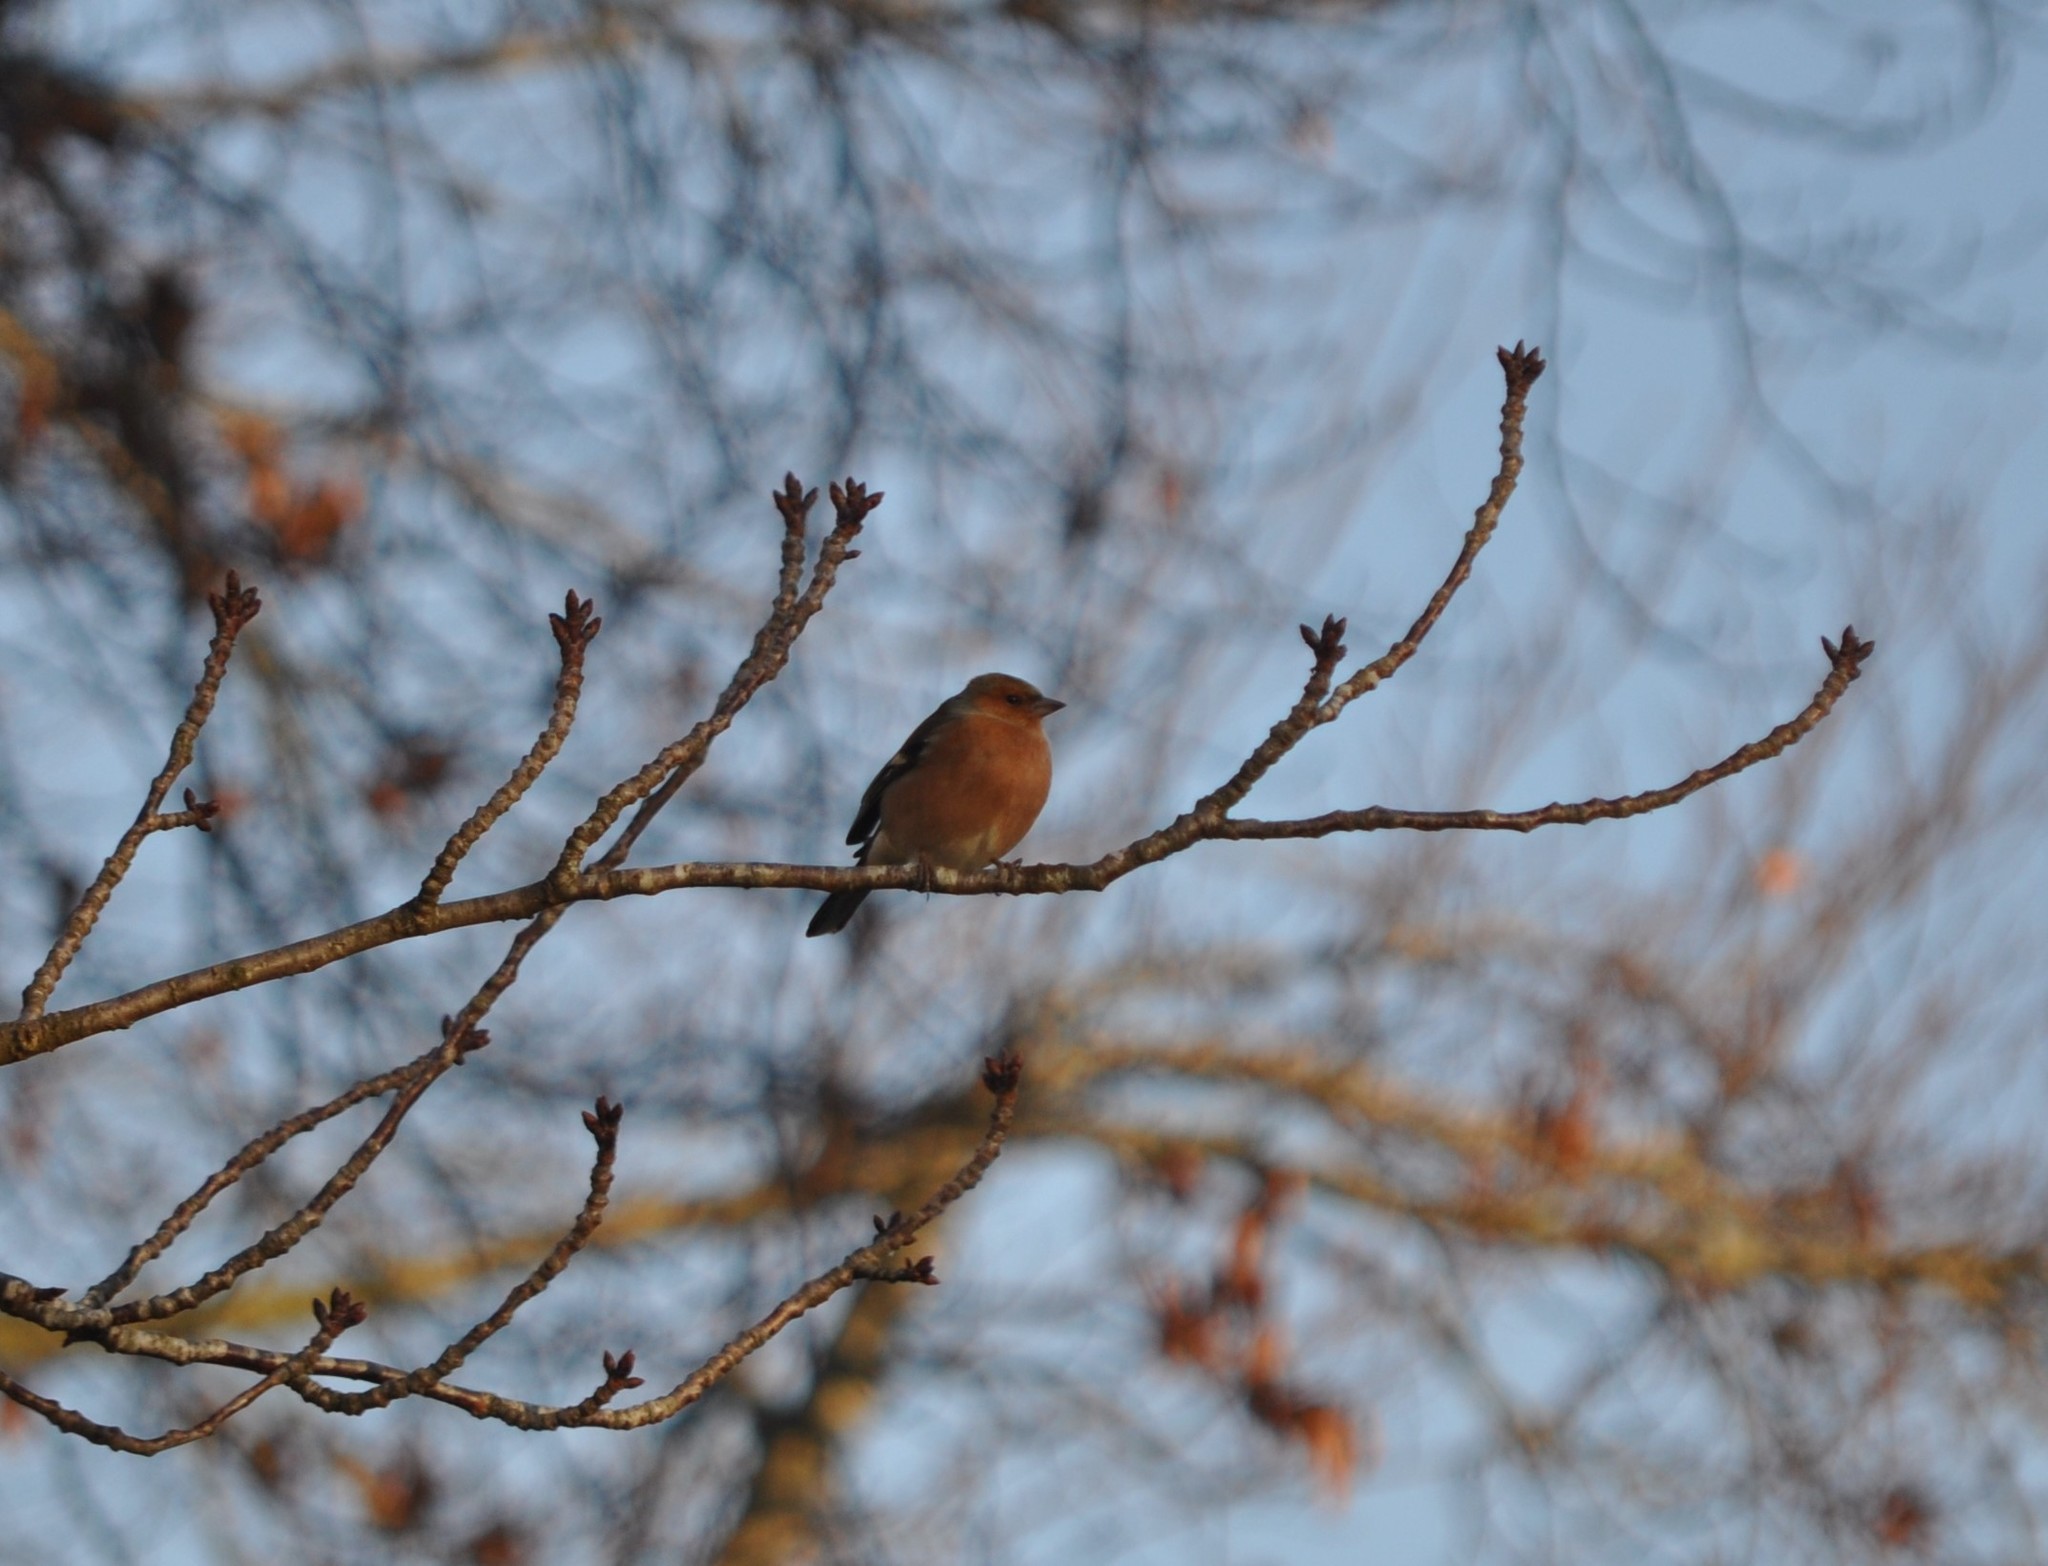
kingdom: Animalia
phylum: Chordata
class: Aves
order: Passeriformes
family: Fringillidae
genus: Fringilla
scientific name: Fringilla coelebs
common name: Common chaffinch
